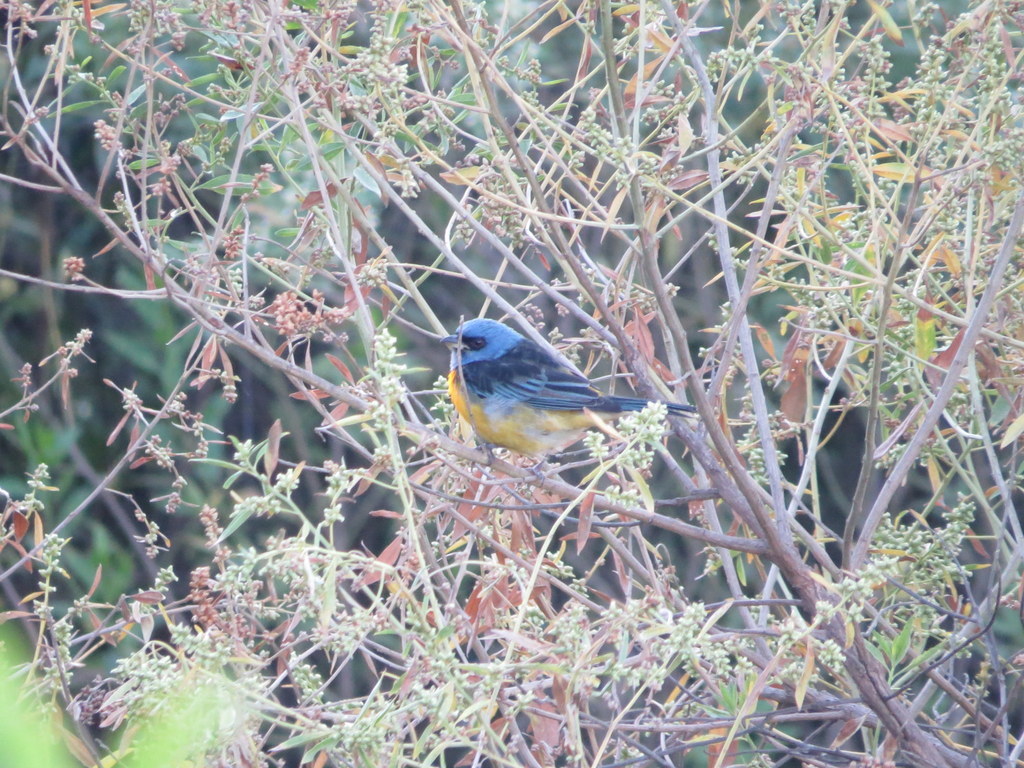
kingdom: Animalia
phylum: Chordata
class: Aves
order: Passeriformes
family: Thraupidae
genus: Rauenia
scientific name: Rauenia bonariensis
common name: Blue-and-yellow tanager
